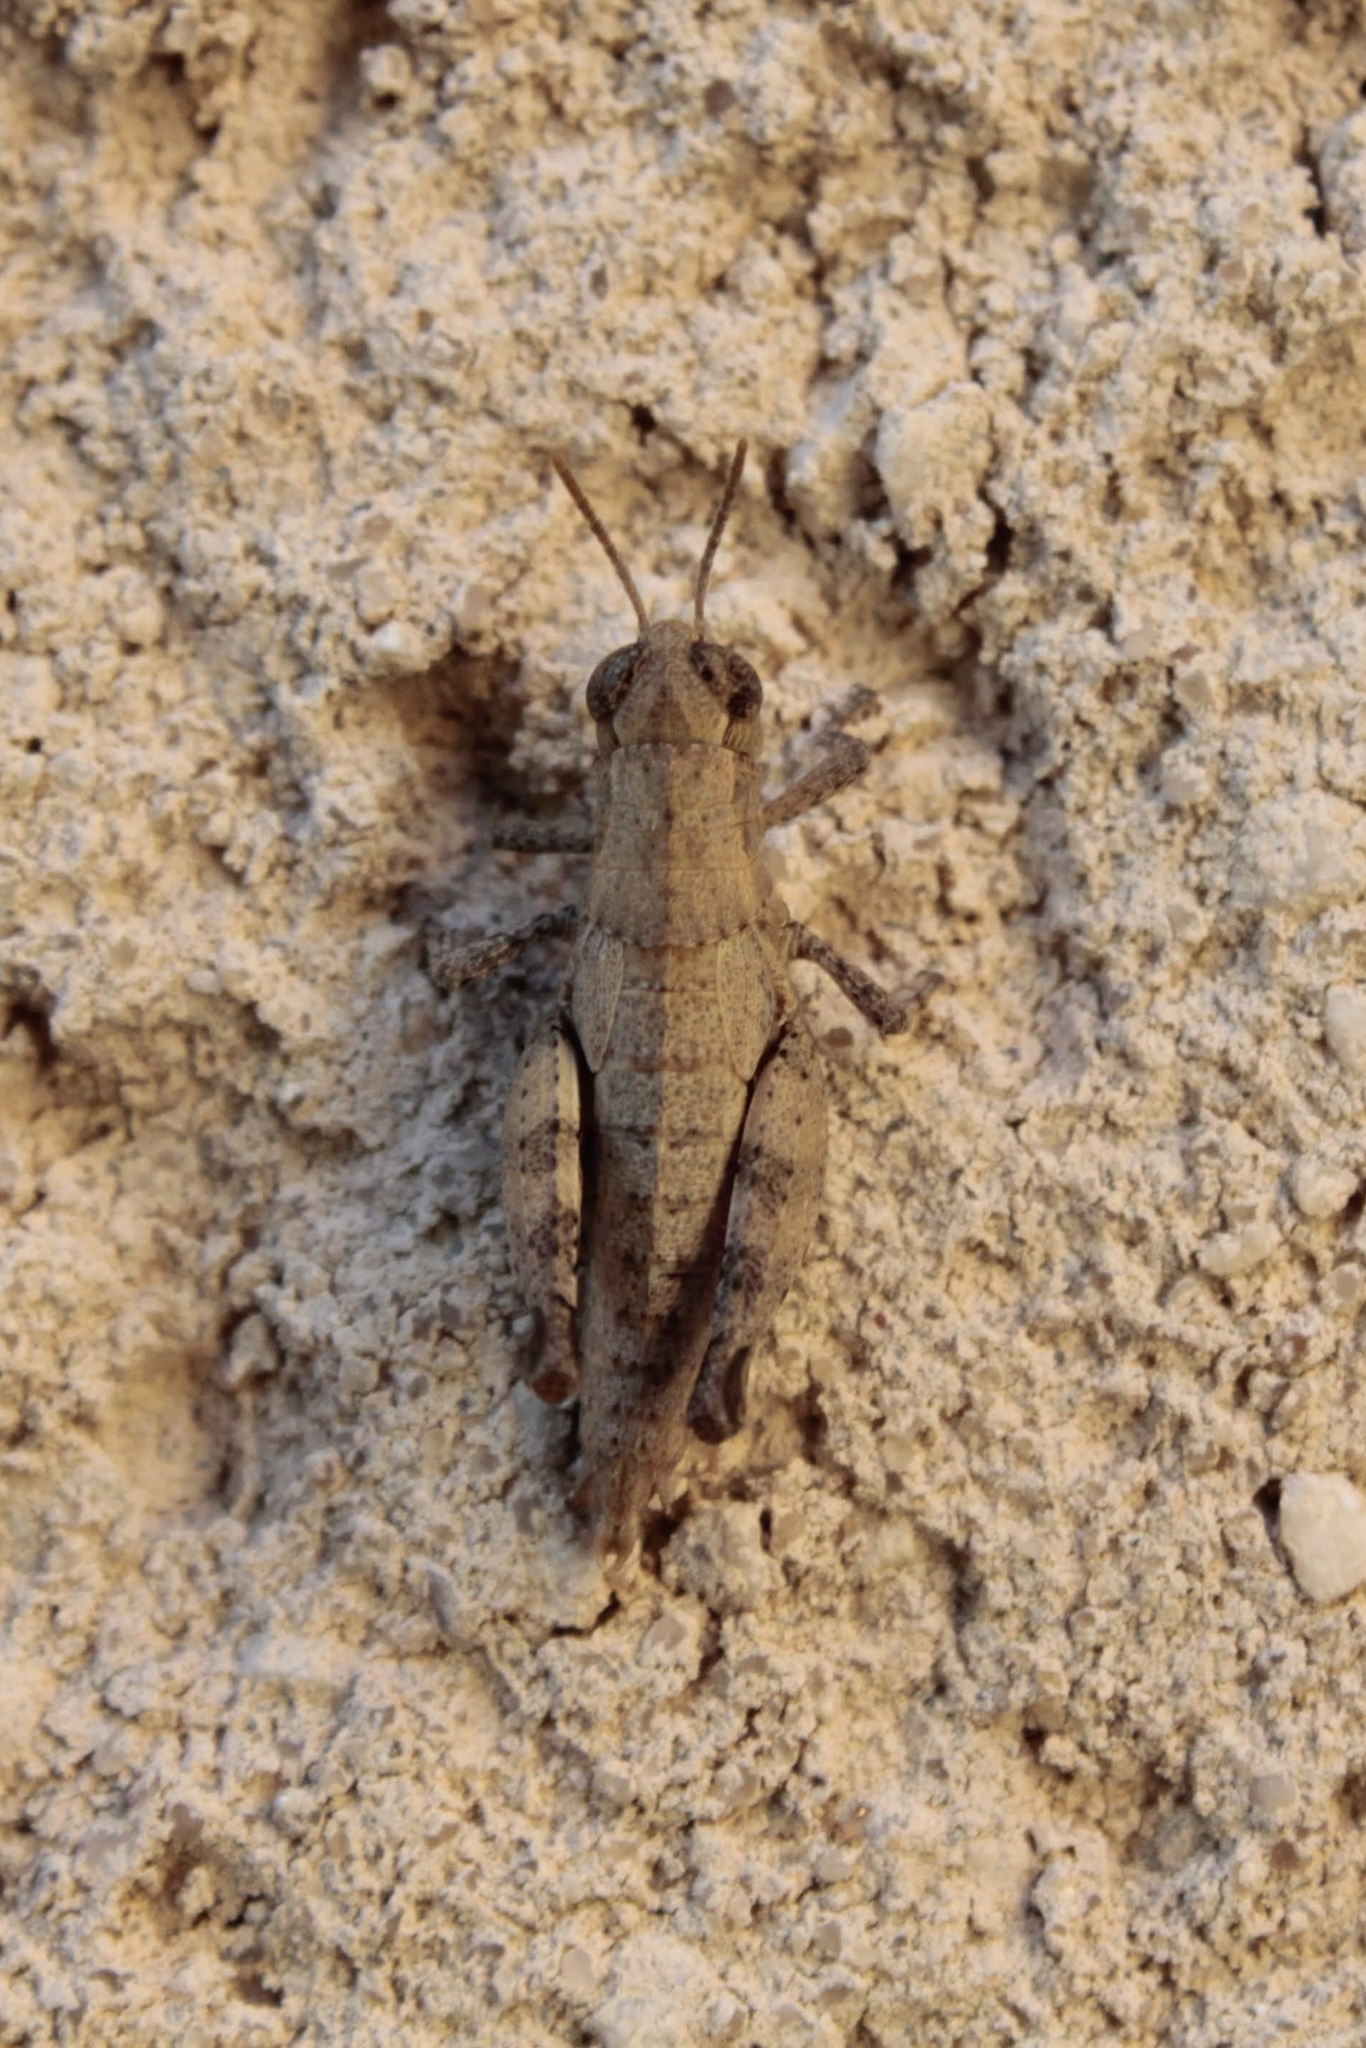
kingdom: Animalia
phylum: Arthropoda
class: Insecta
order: Orthoptera
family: Acrididae
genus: Pezotettix
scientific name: Pezotettix giornae
